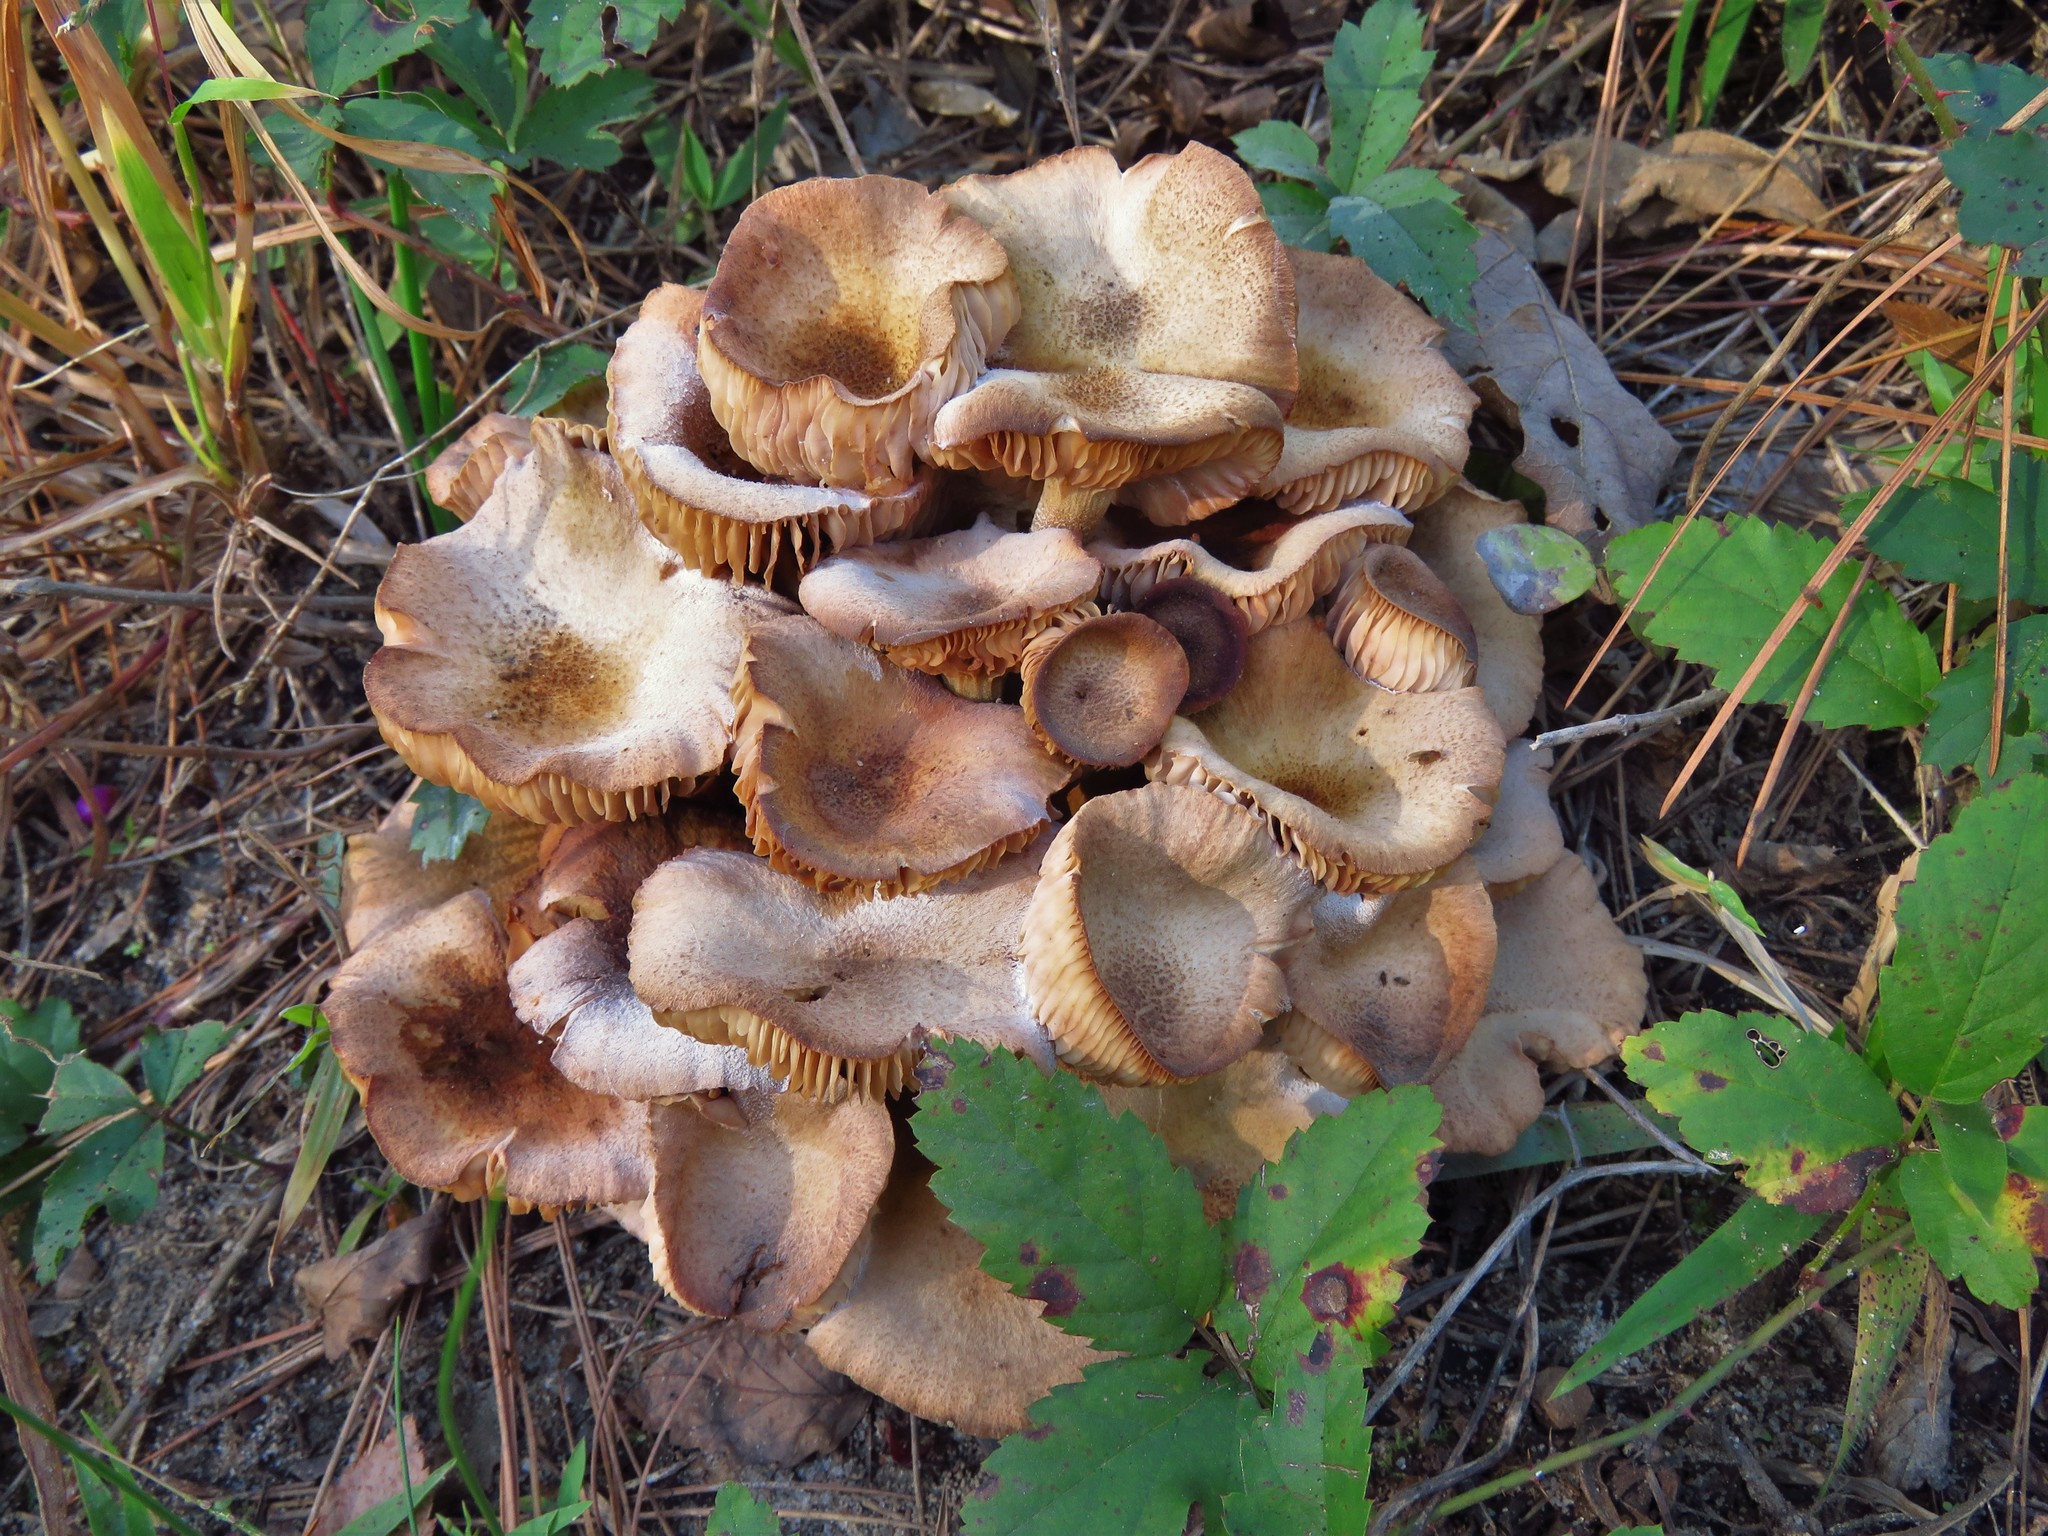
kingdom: Fungi
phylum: Basidiomycota
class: Agaricomycetes
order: Agaricales
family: Physalacriaceae
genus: Desarmillaria
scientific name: Desarmillaria caespitosa
